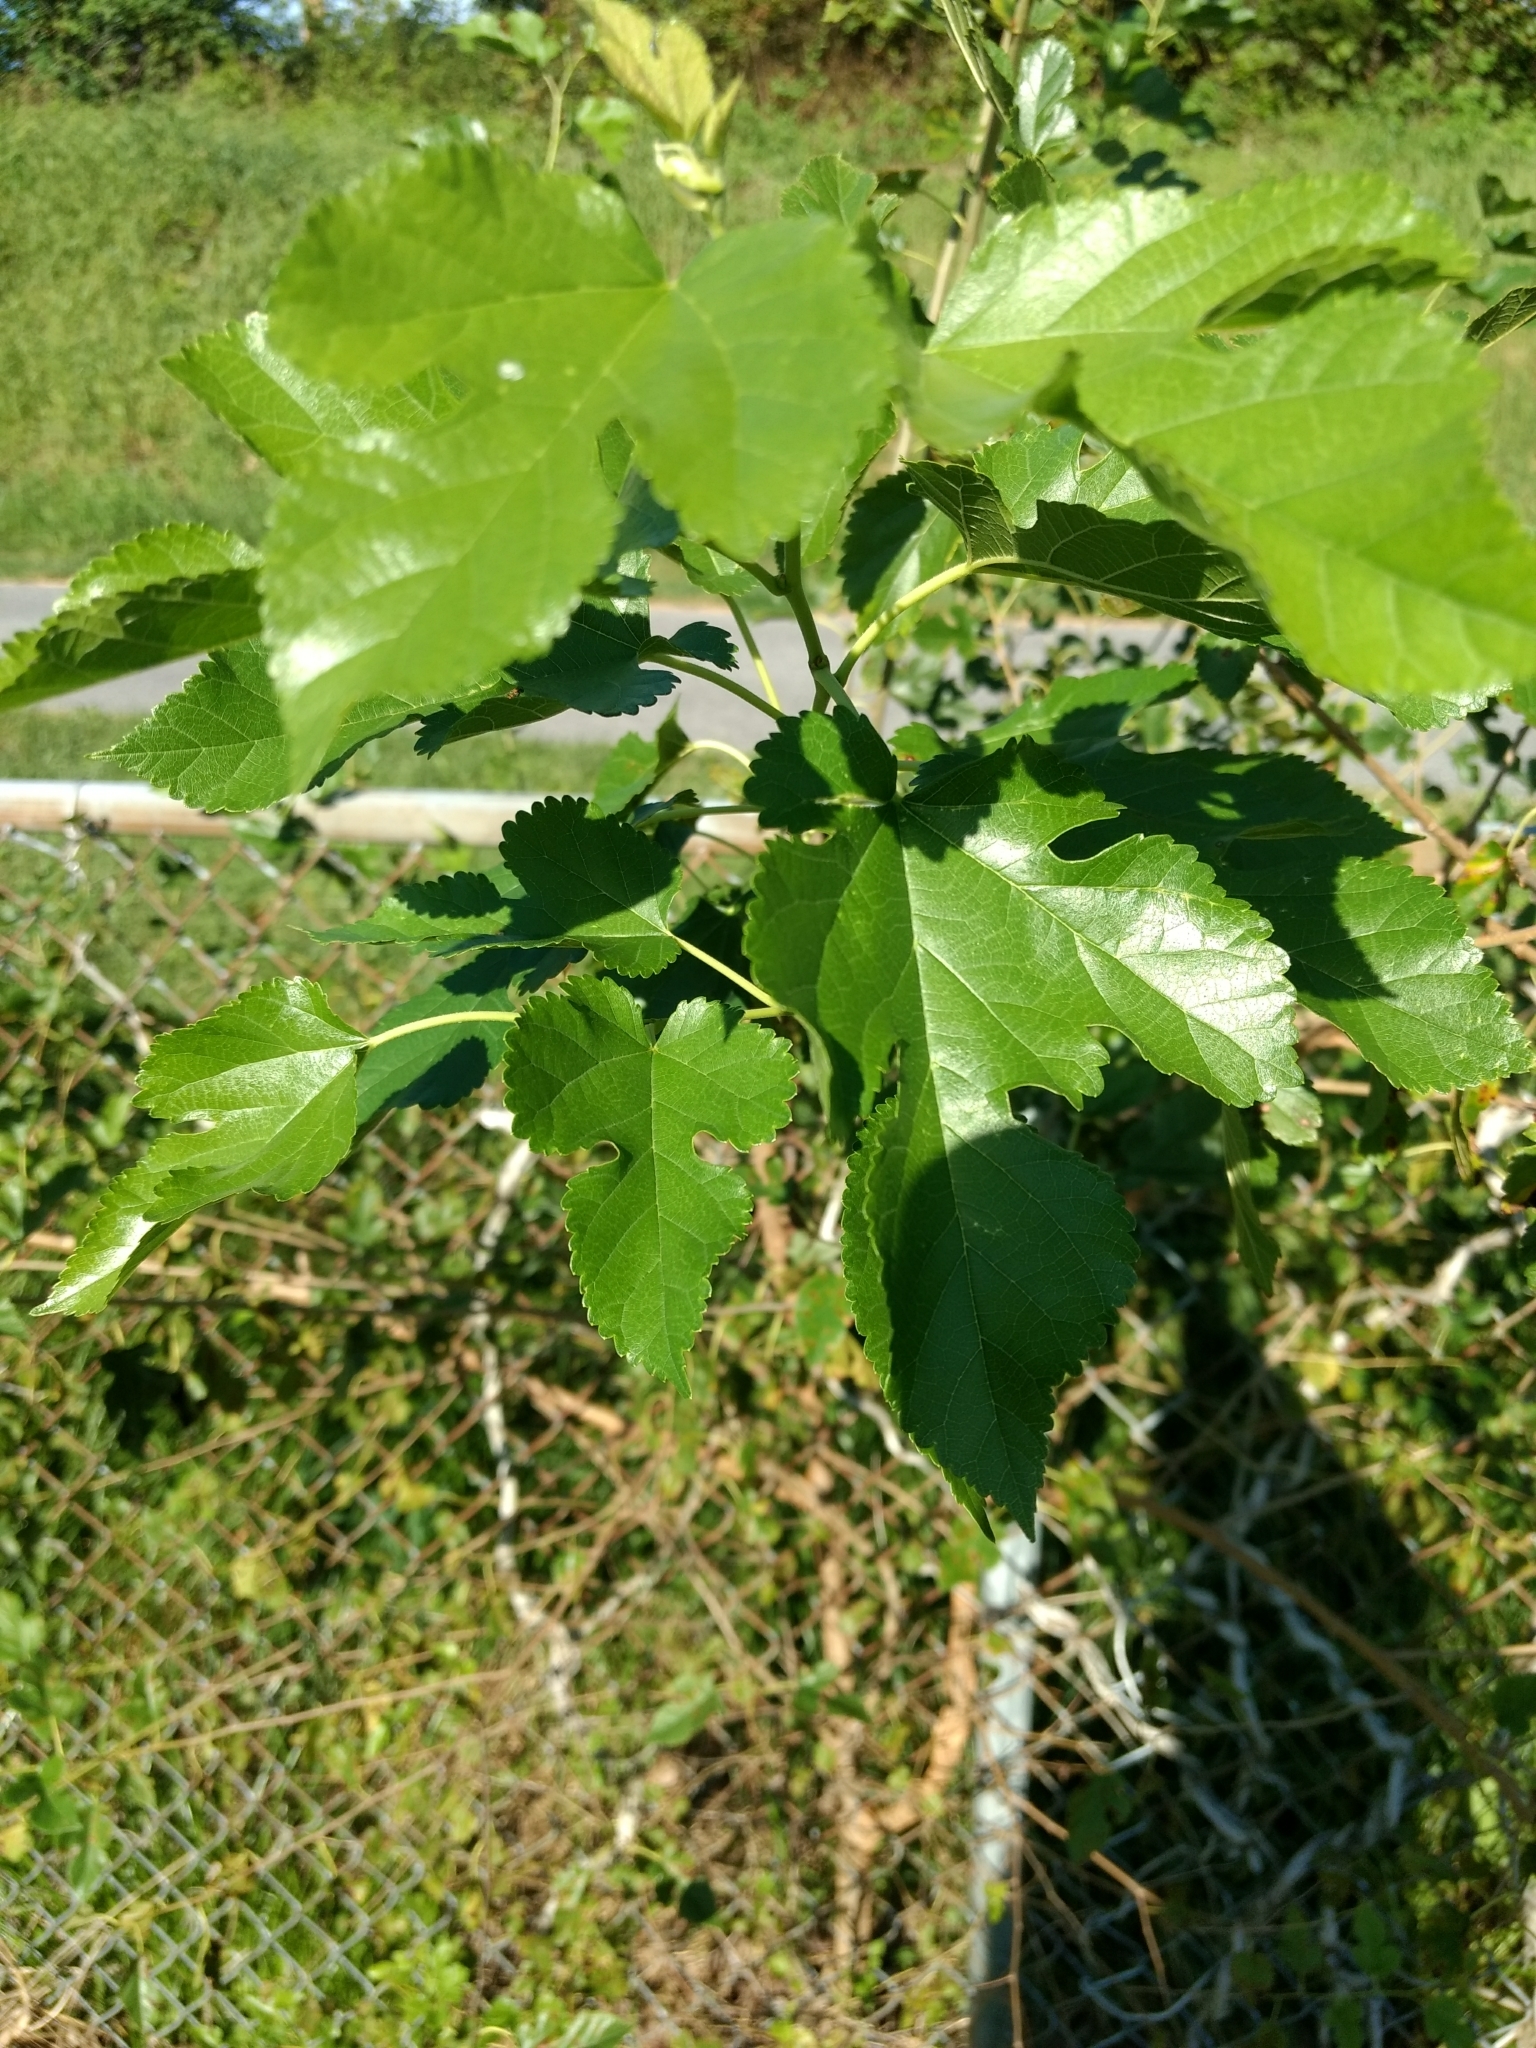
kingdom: Plantae
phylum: Tracheophyta
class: Magnoliopsida
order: Rosales
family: Moraceae
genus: Morus
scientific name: Morus alba
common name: White mulberry
